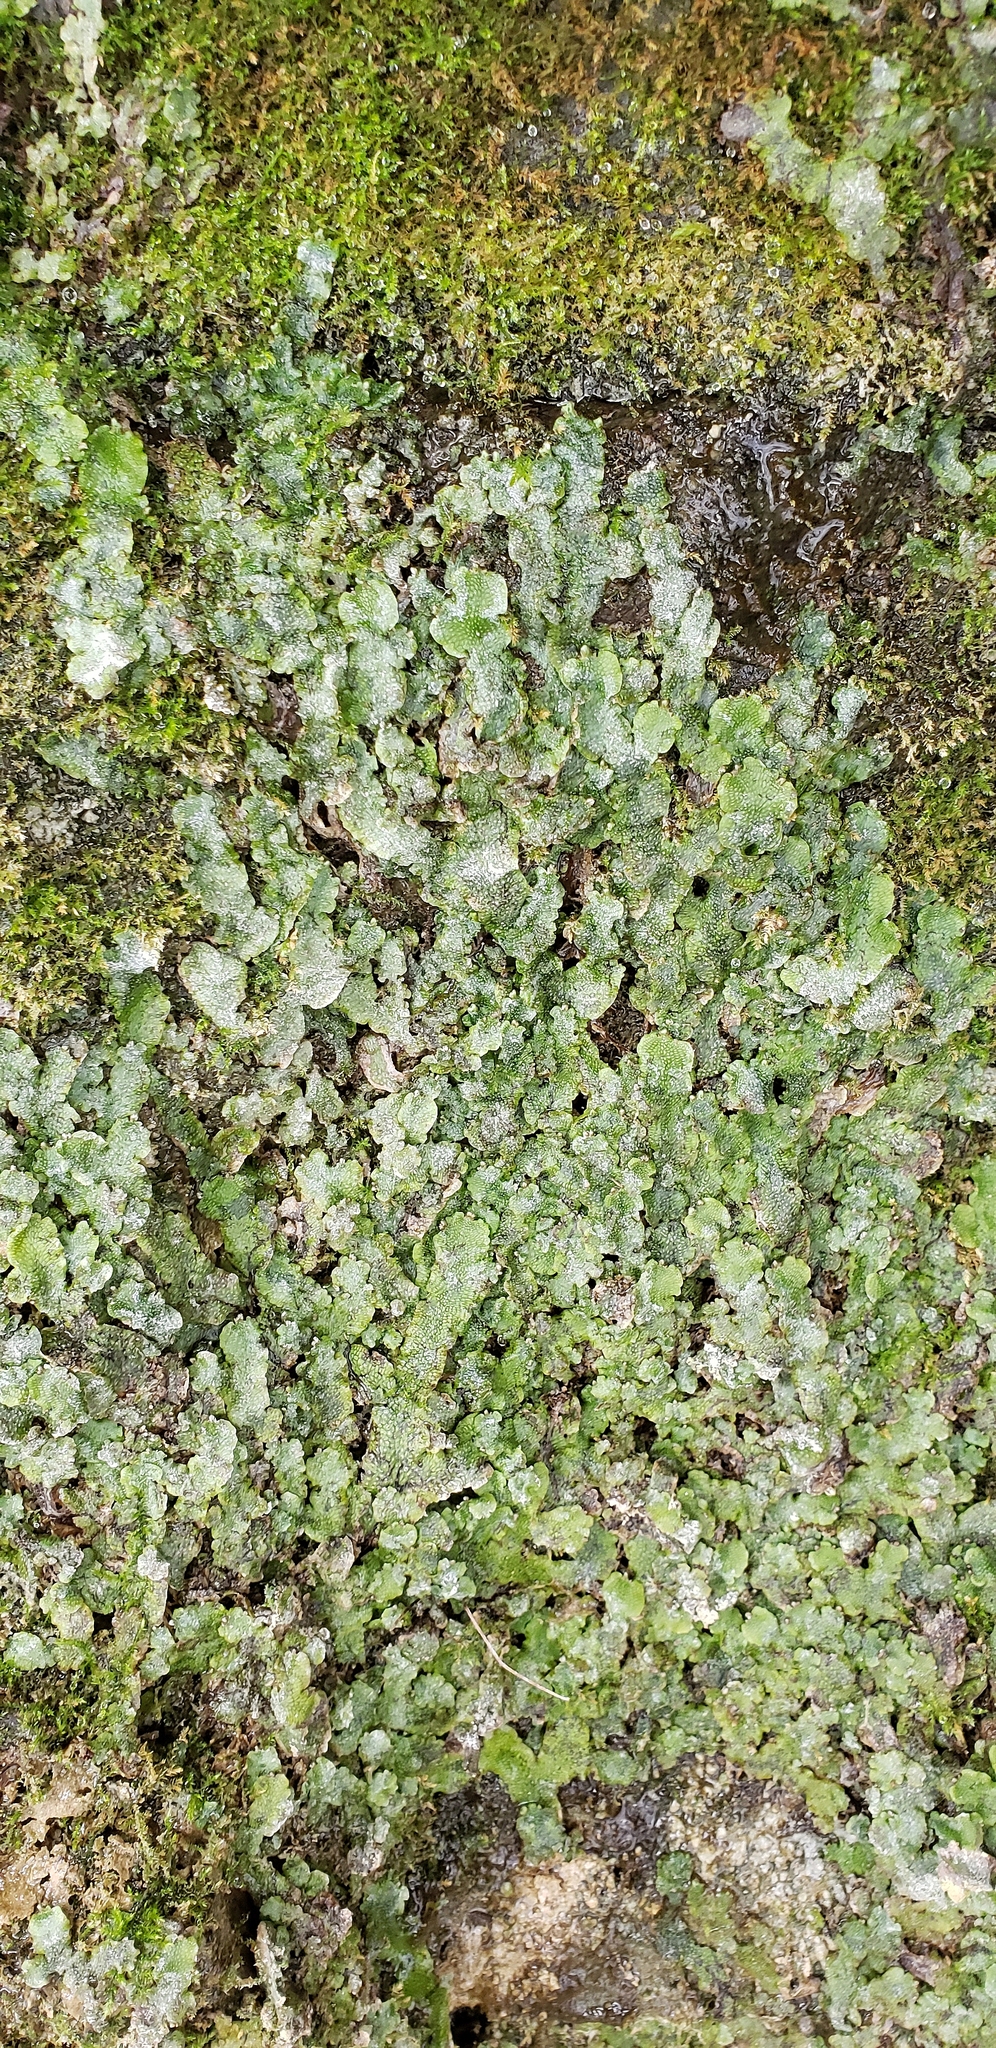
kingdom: Plantae
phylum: Marchantiophyta
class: Marchantiopsida
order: Marchantiales
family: Conocephalaceae
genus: Conocephalum
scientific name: Conocephalum salebrosum
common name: Cat-tongue liverwort
